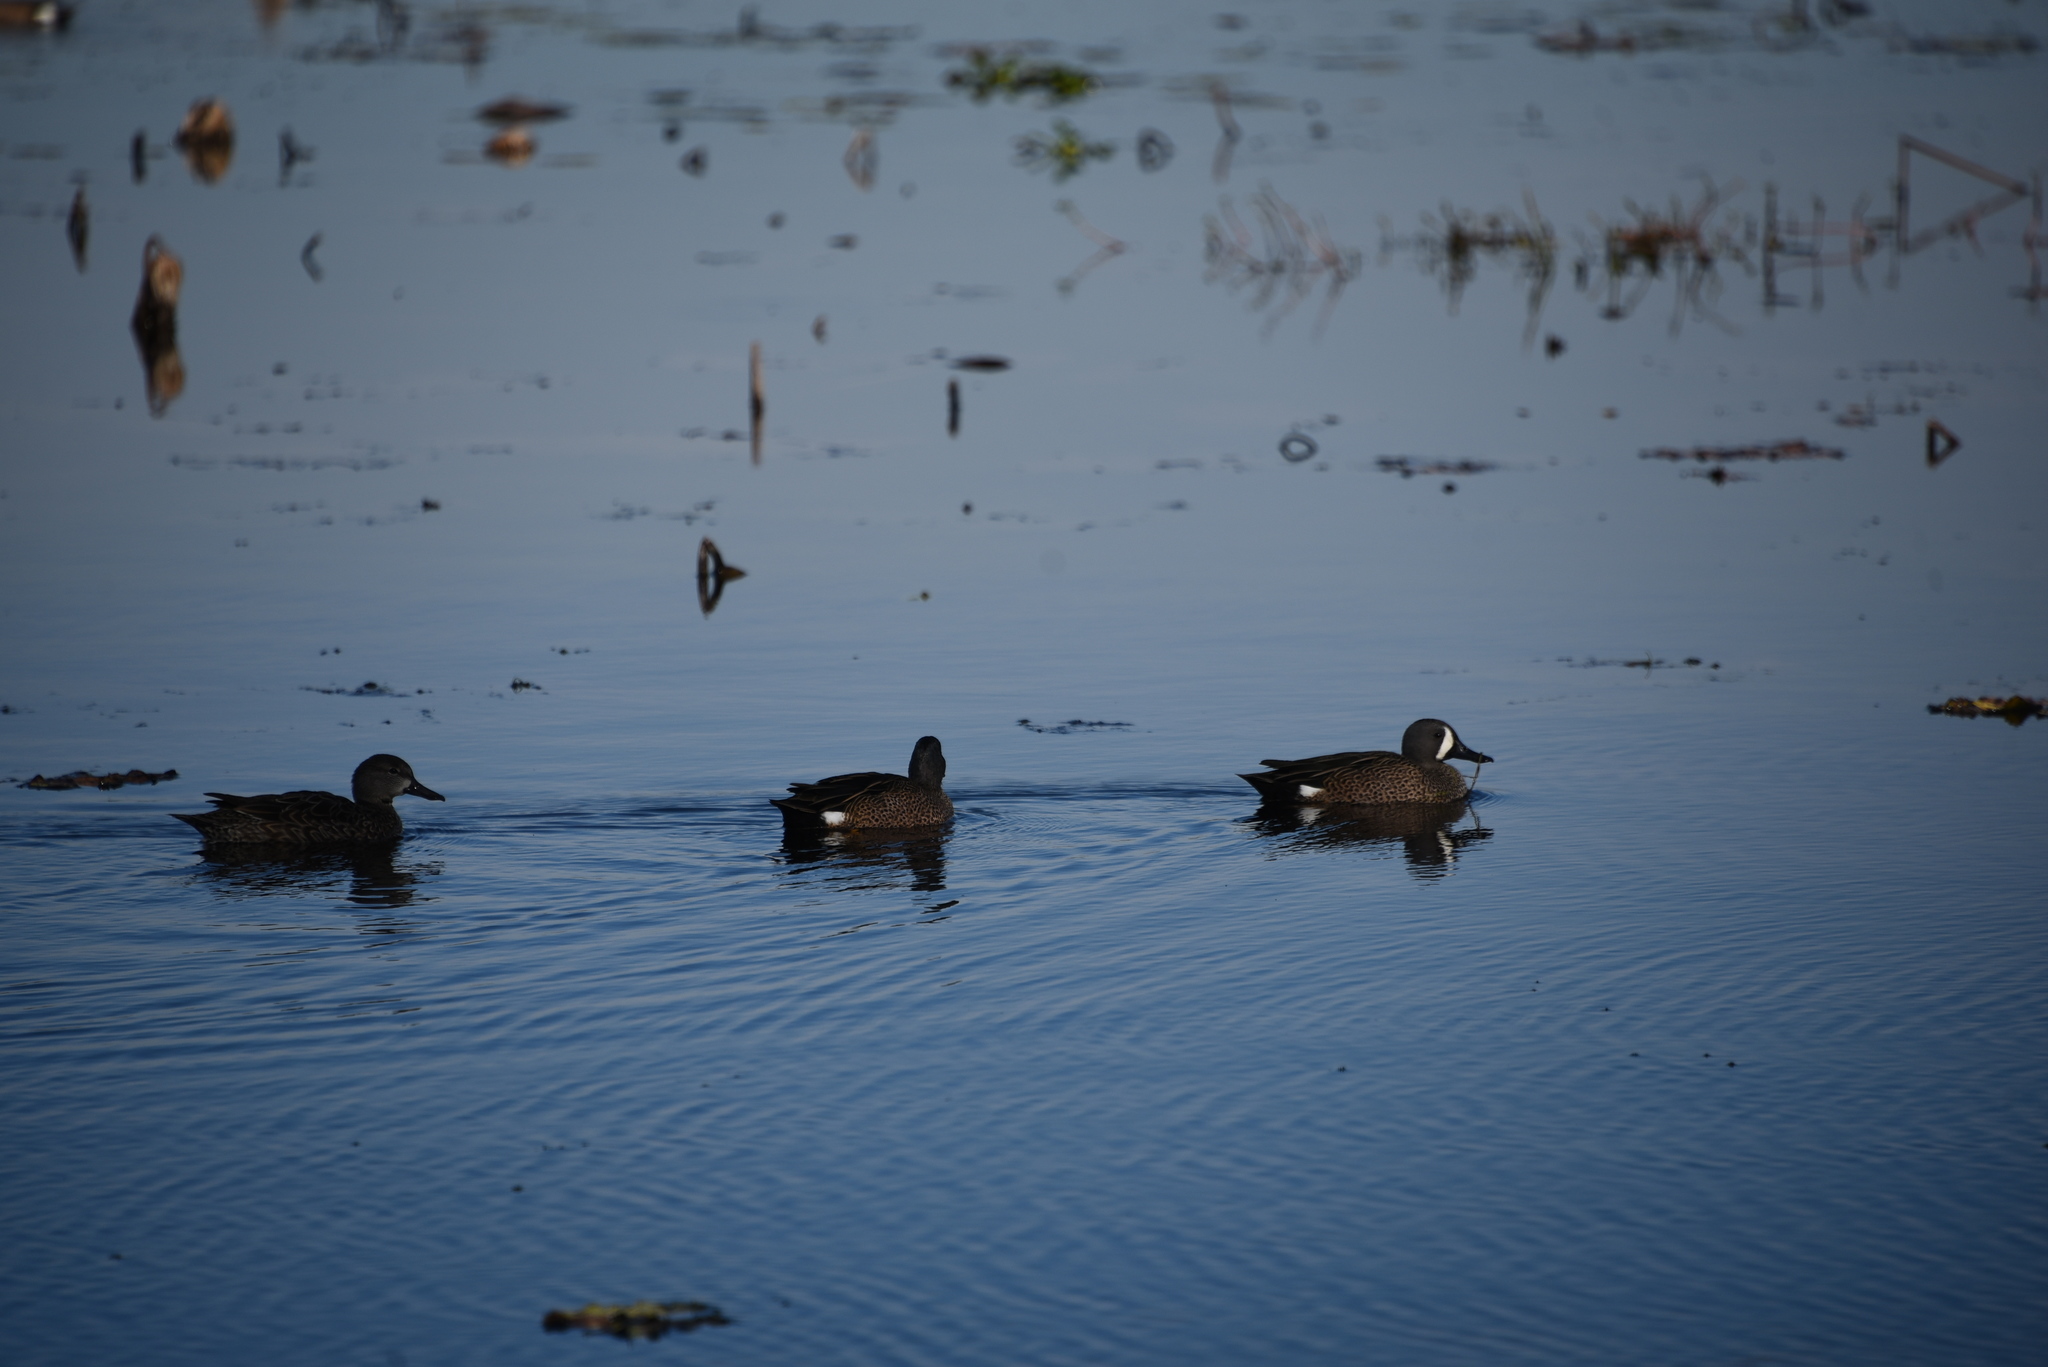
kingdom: Animalia
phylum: Chordata
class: Aves
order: Anseriformes
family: Anatidae
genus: Spatula
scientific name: Spatula discors
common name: Blue-winged teal
